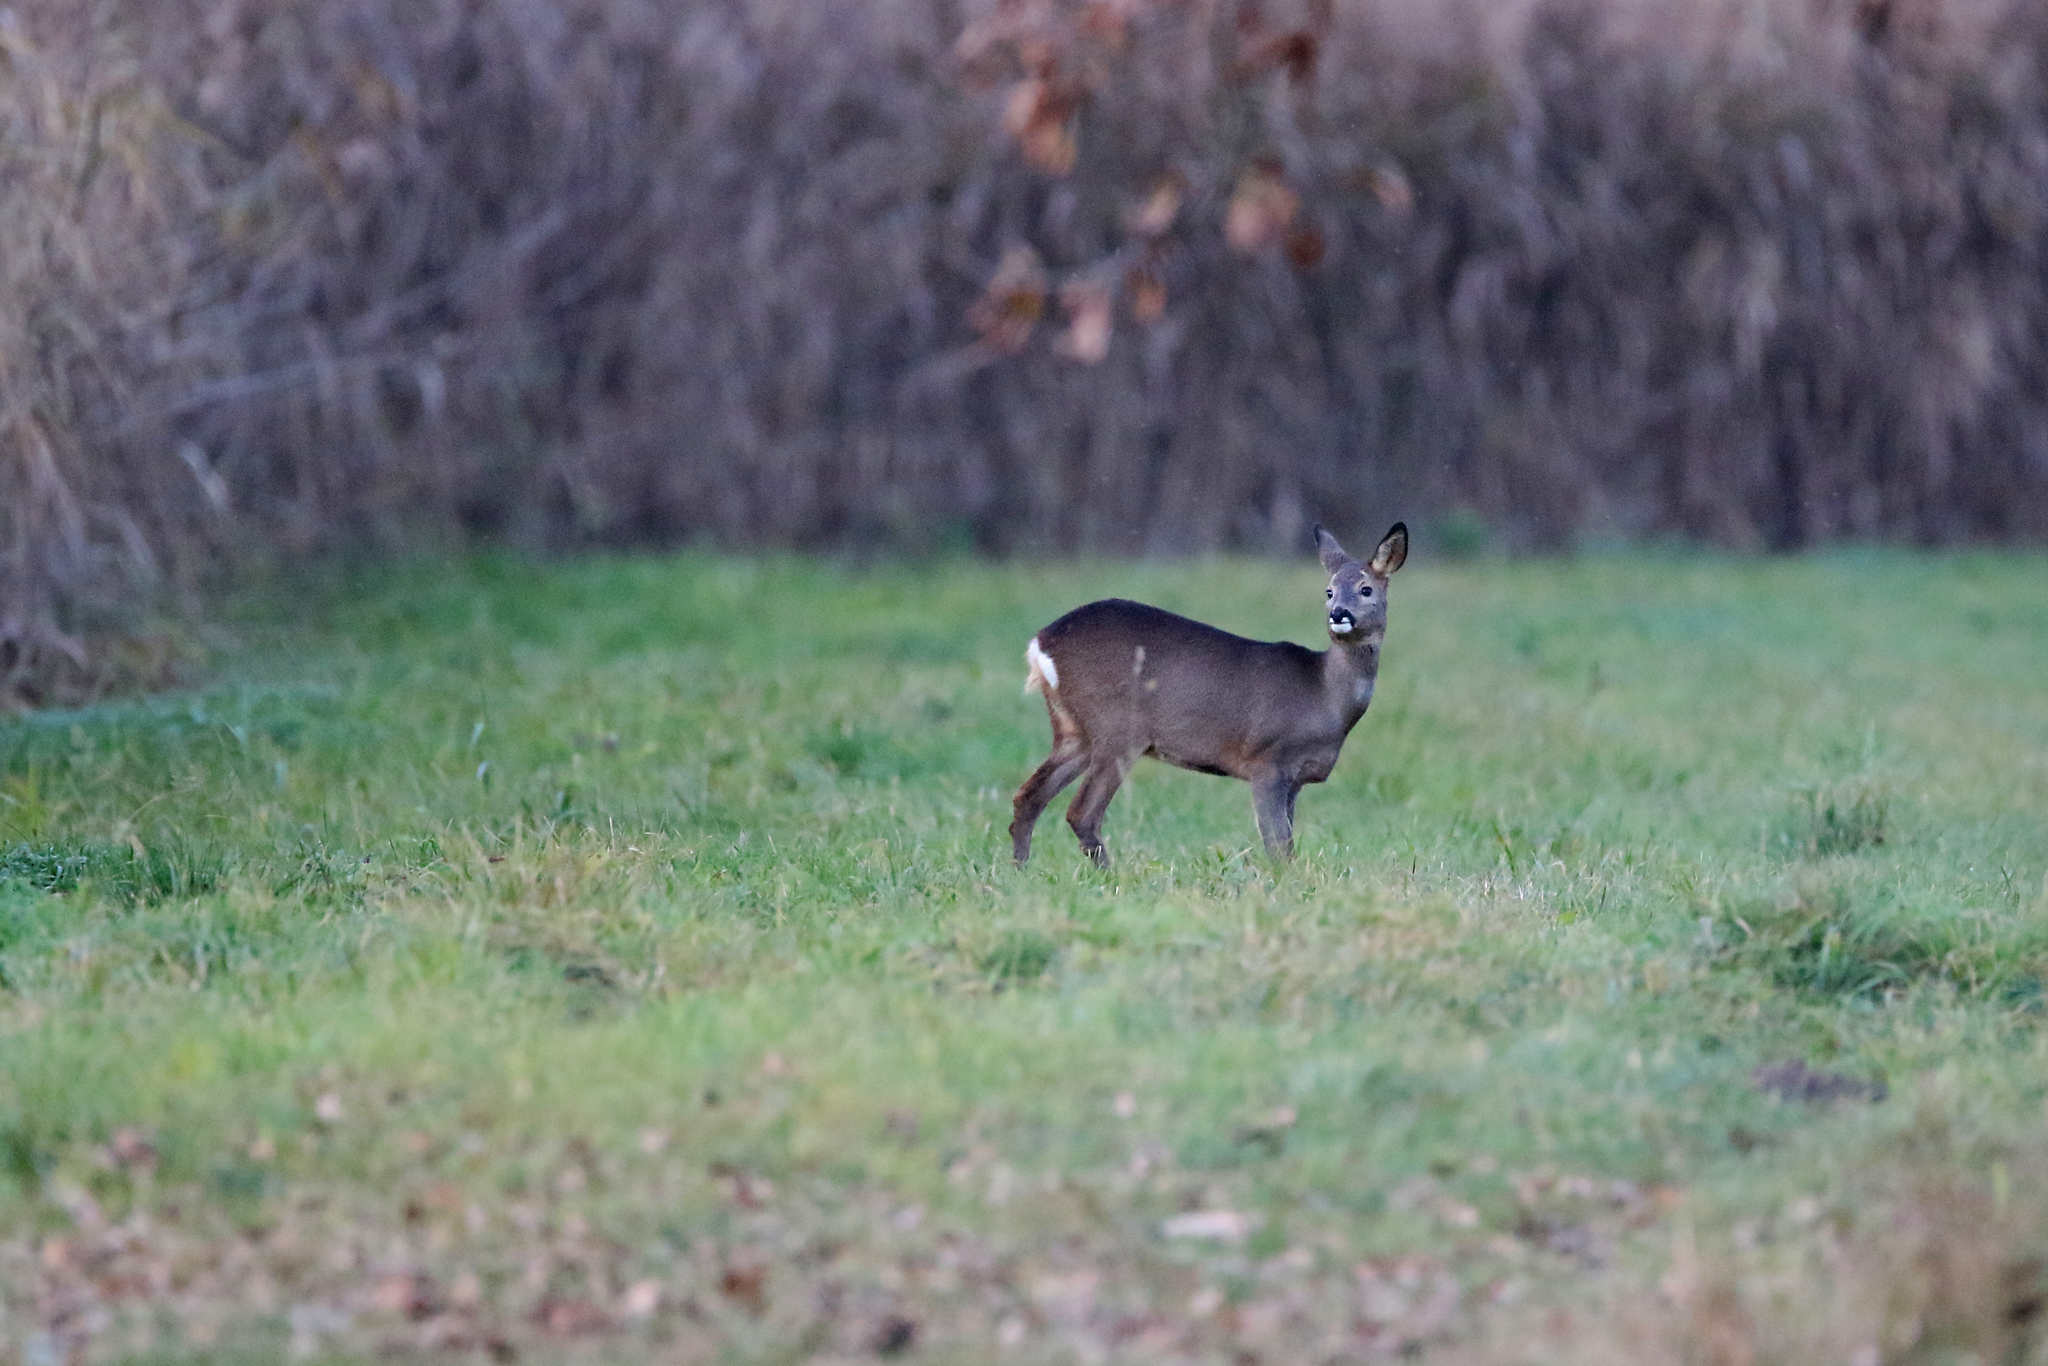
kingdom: Animalia
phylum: Chordata
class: Mammalia
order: Artiodactyla
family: Cervidae
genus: Capreolus
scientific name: Capreolus capreolus
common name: Western roe deer
